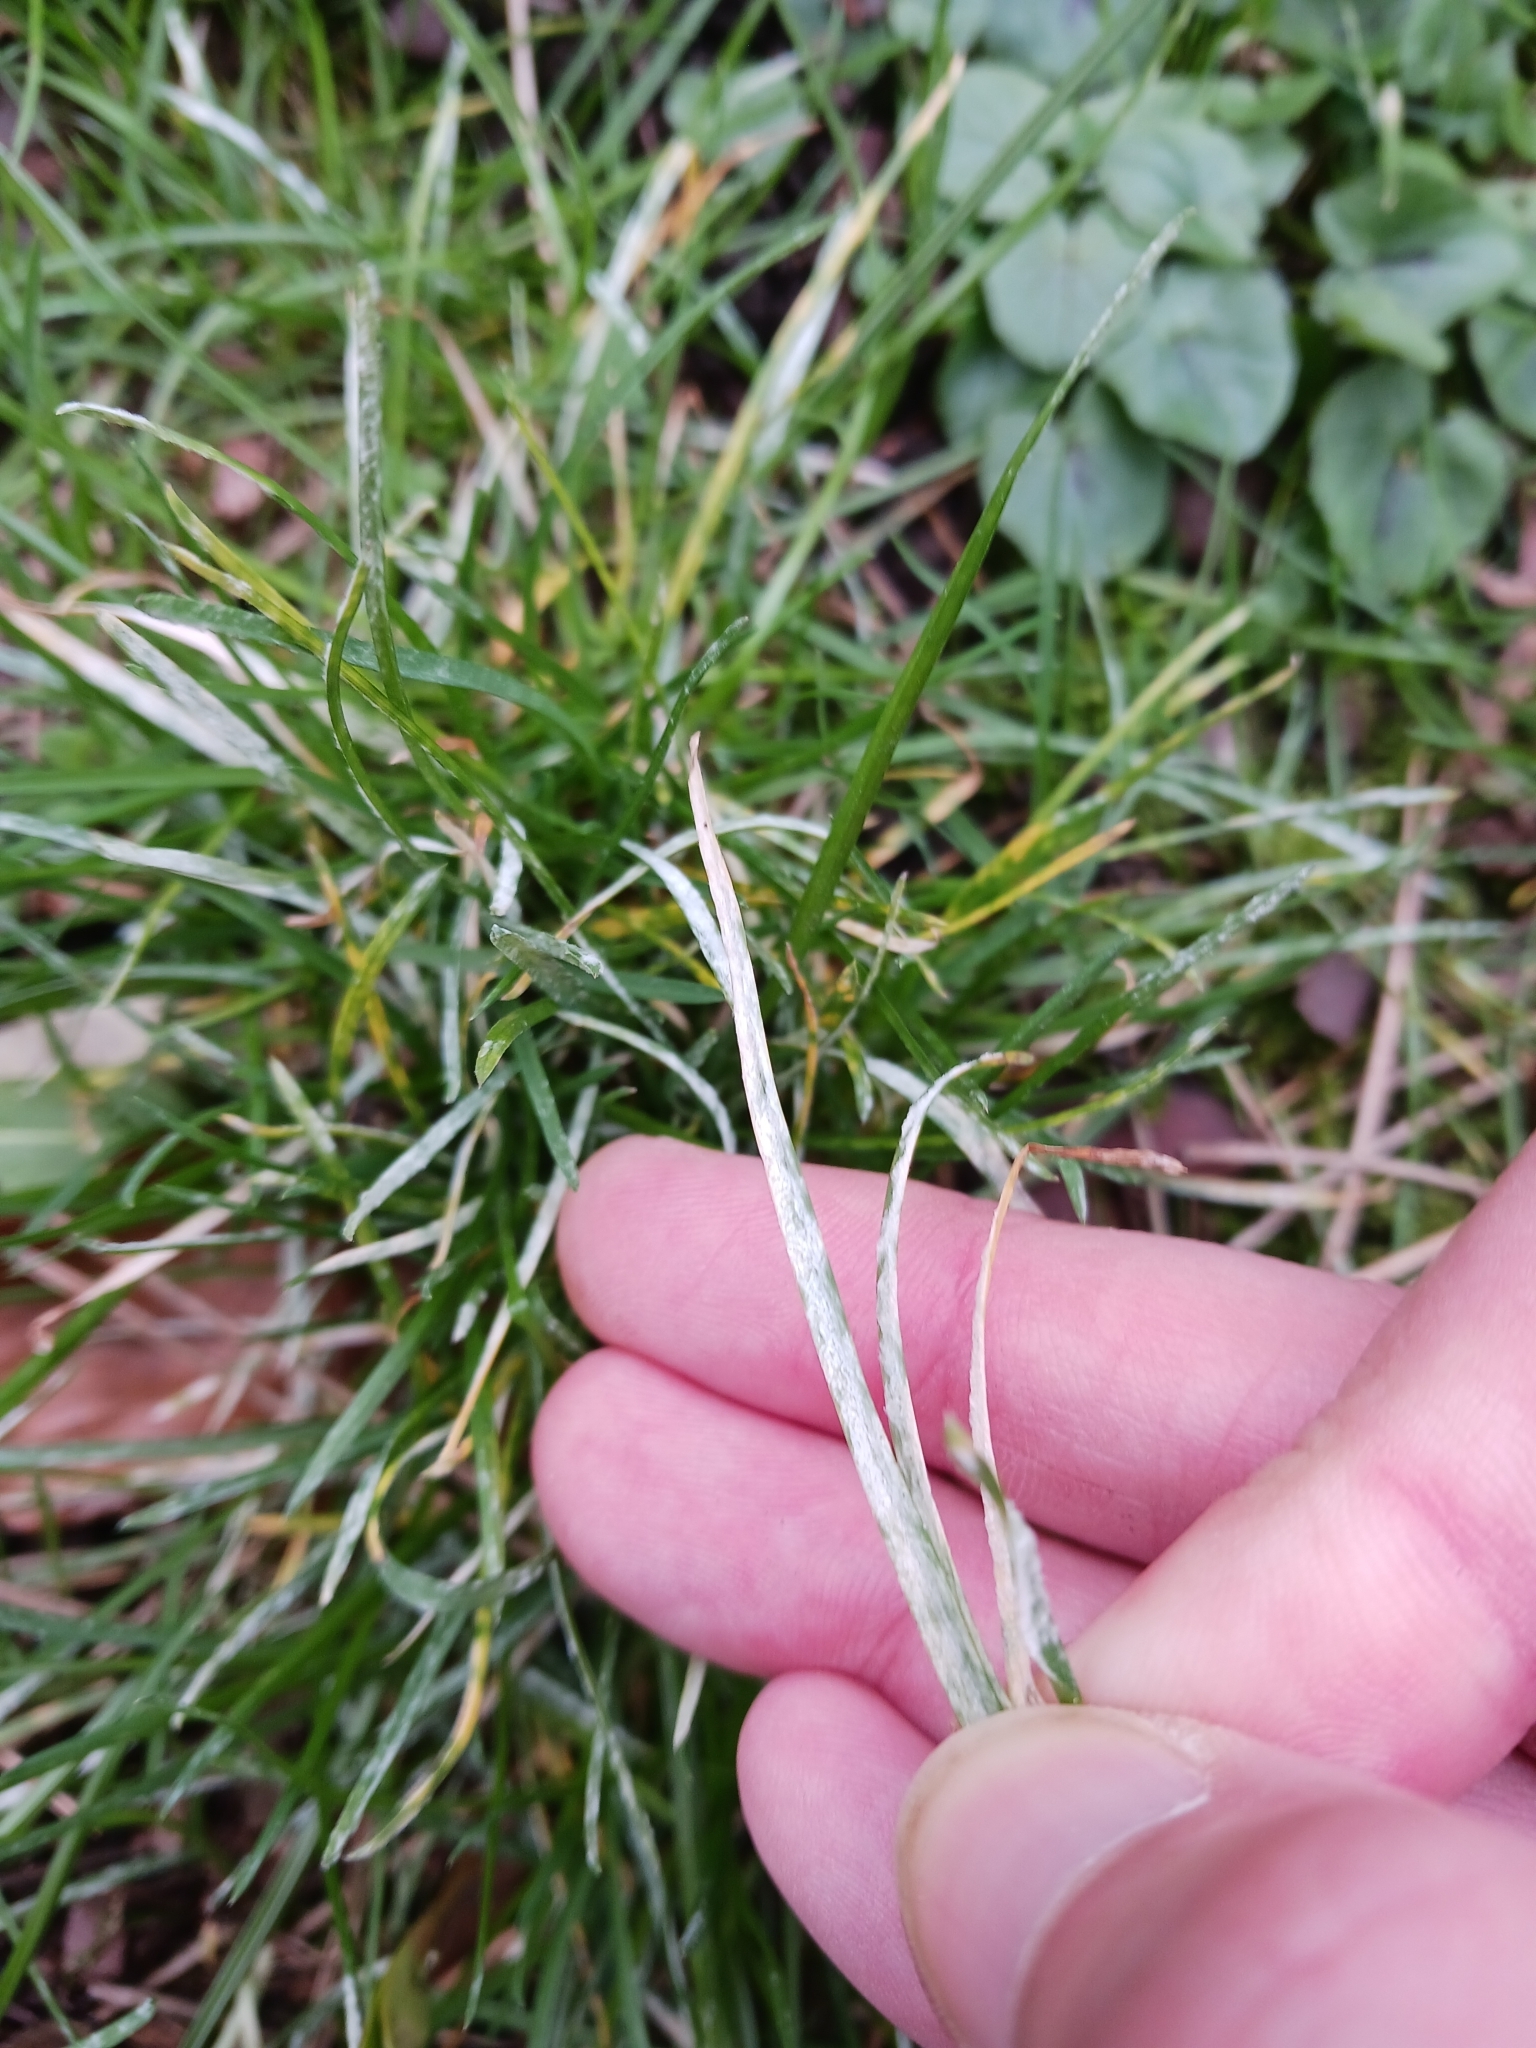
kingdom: Fungi
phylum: Ascomycota
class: Leotiomycetes
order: Helotiales
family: Erysiphaceae
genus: Blumeria
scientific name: Blumeria graminicola
